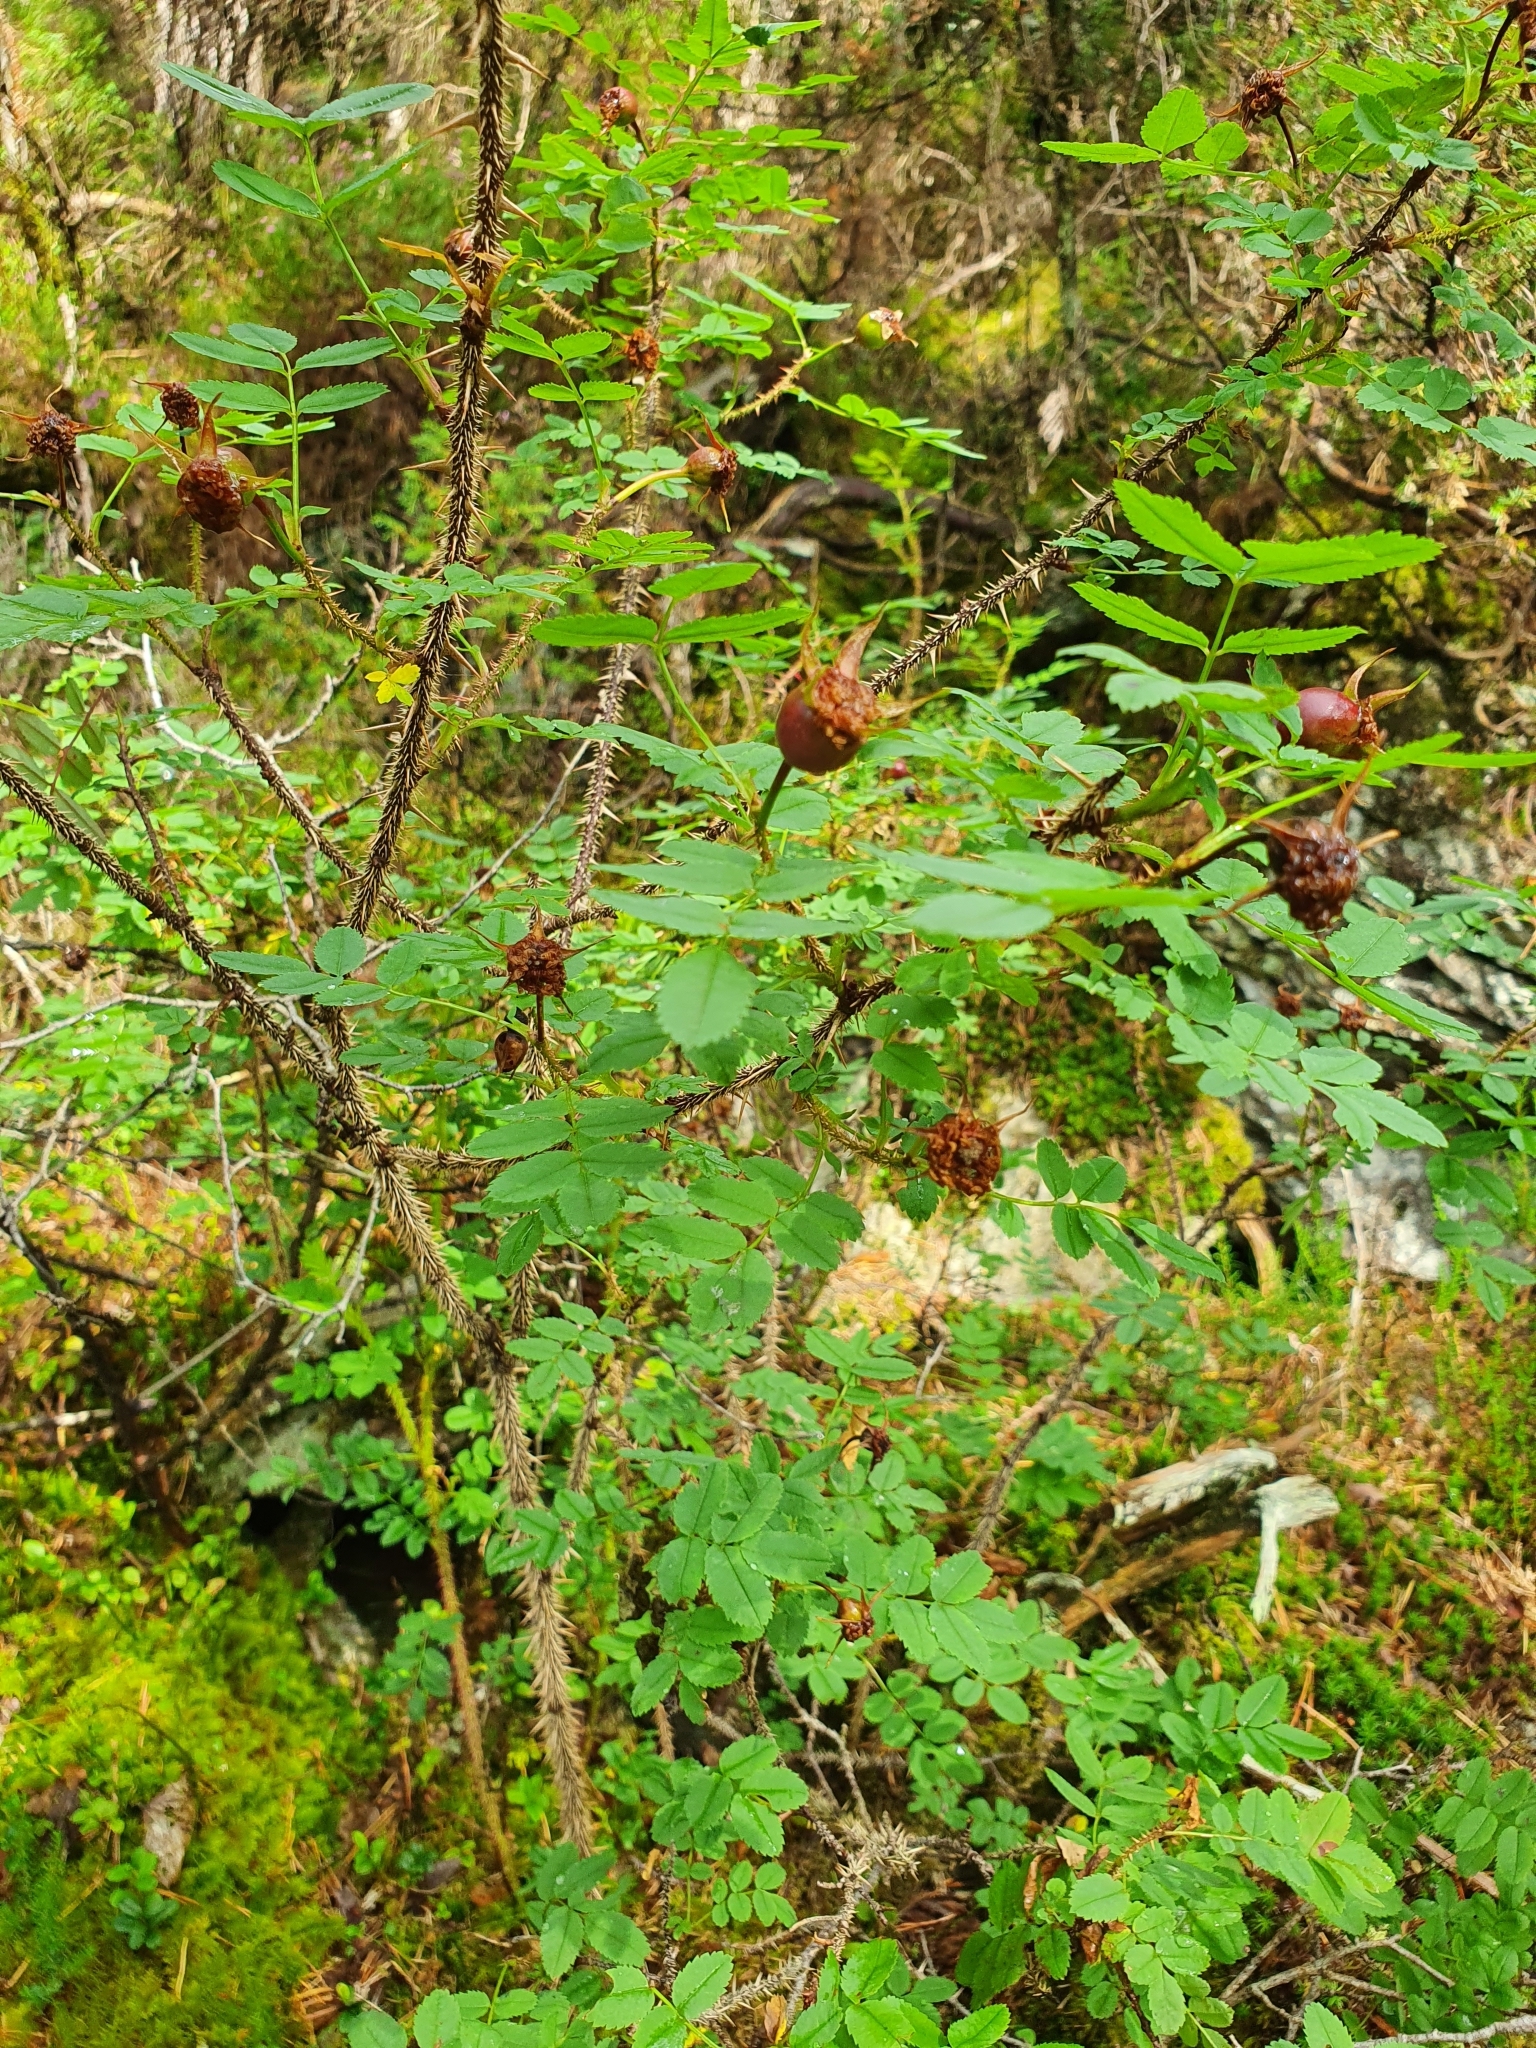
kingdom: Plantae
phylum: Tracheophyta
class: Magnoliopsida
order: Rosales
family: Rosaceae
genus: Rosa
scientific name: Rosa spinosissima
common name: Burnet rose
